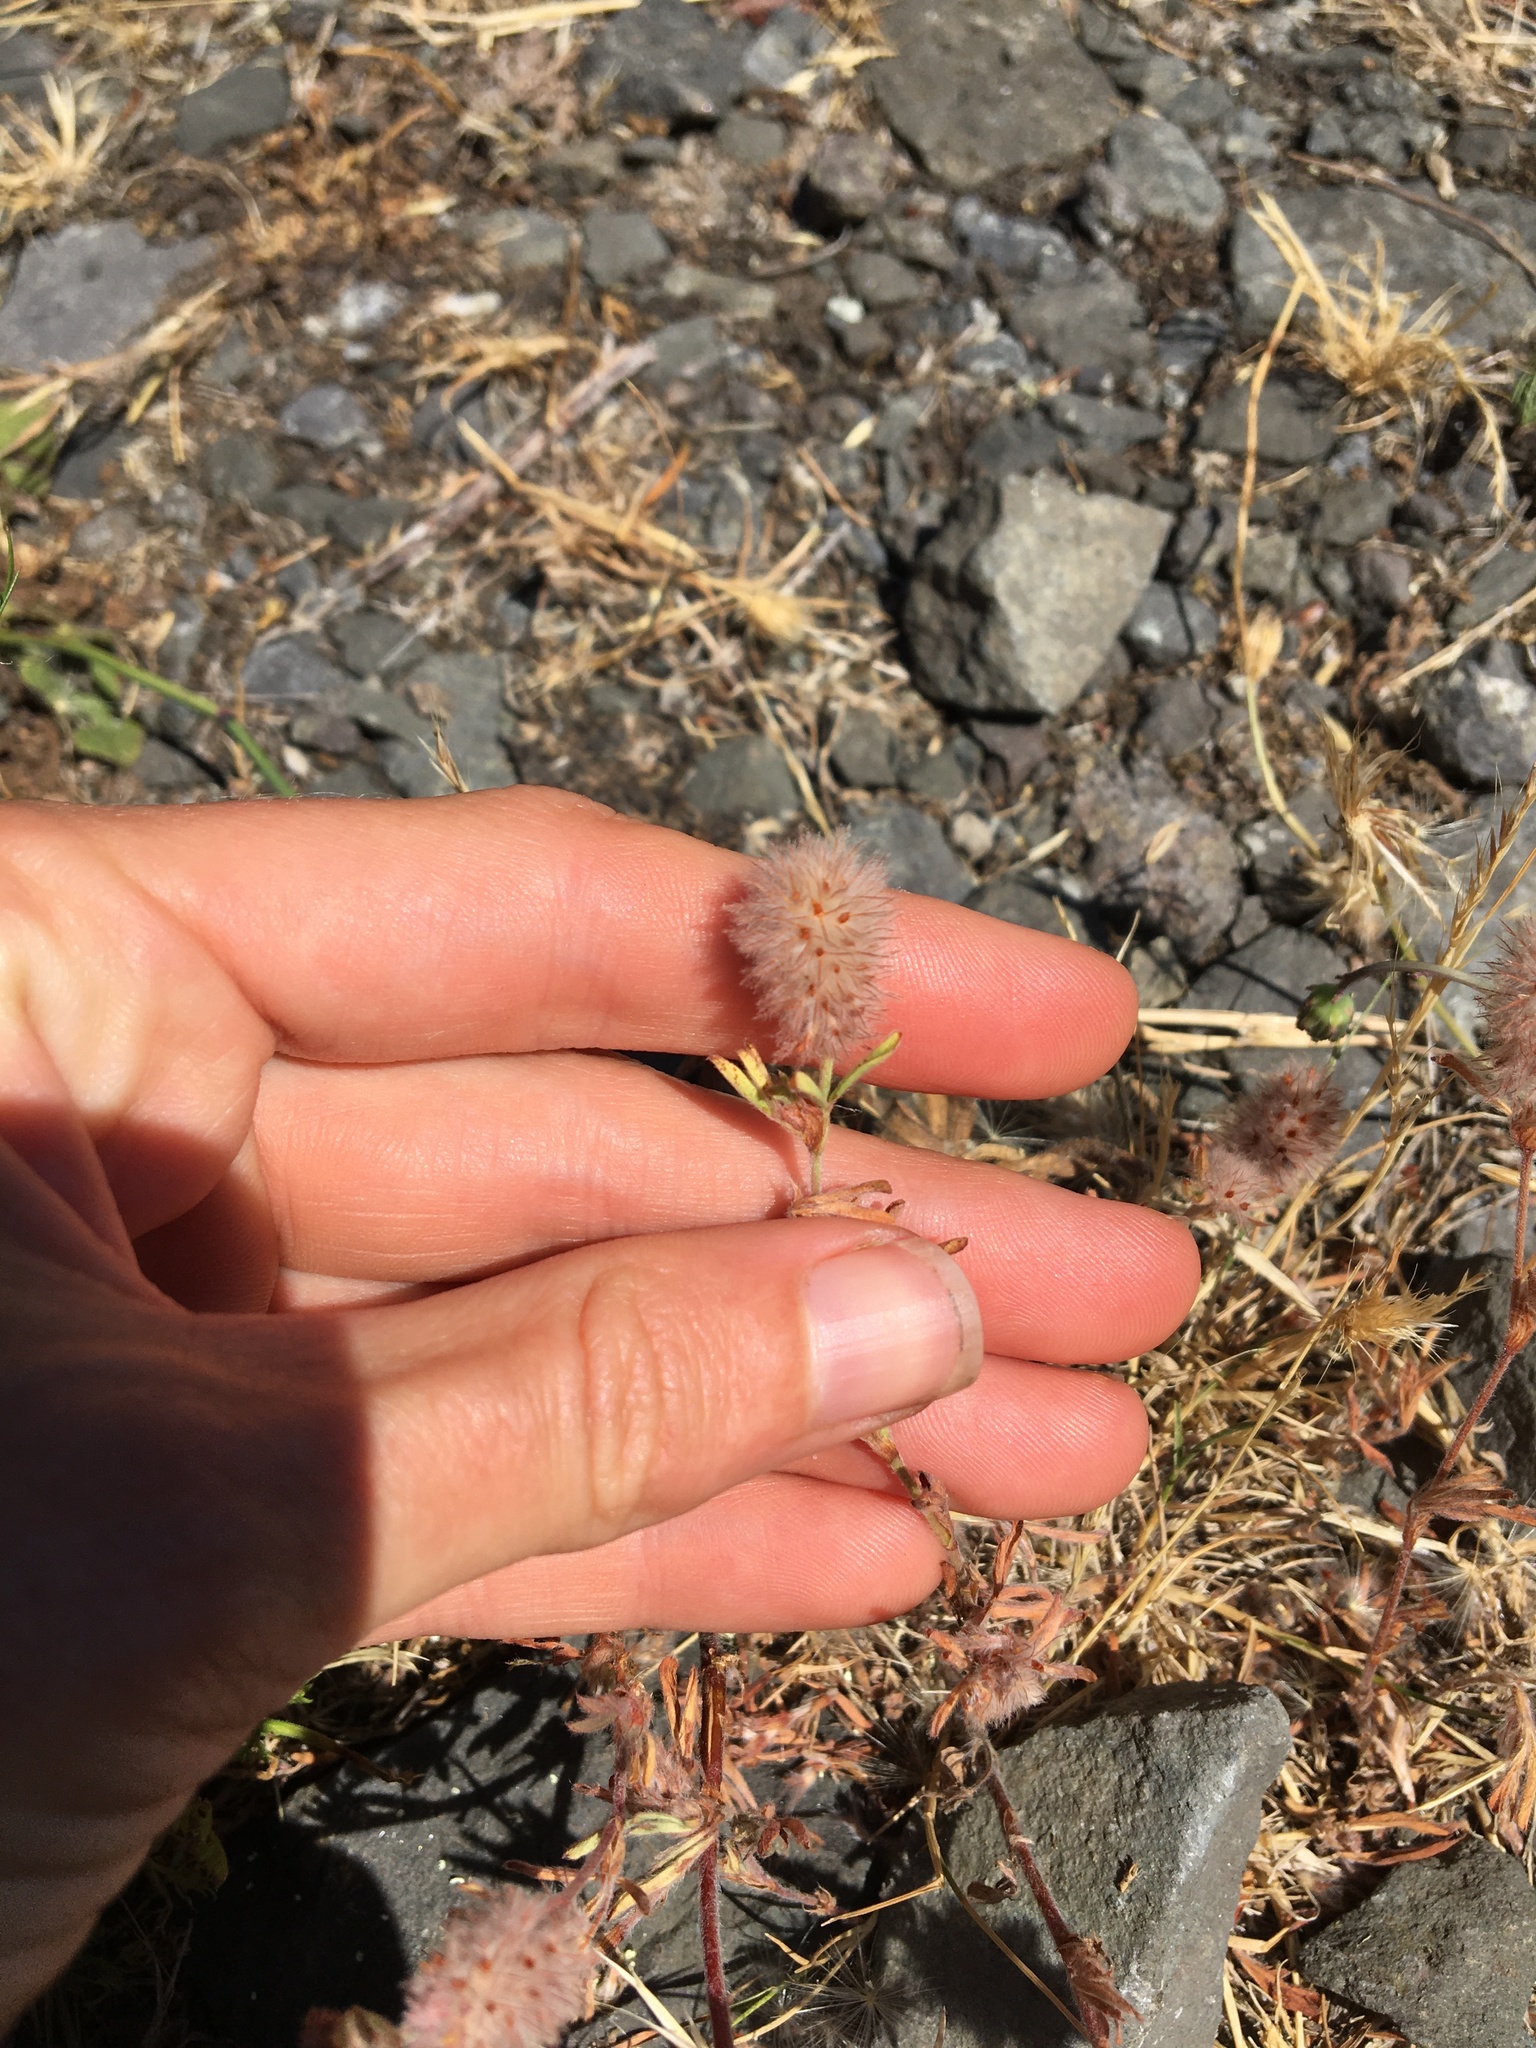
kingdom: Plantae
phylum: Tracheophyta
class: Magnoliopsida
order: Fabales
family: Fabaceae
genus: Trifolium
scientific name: Trifolium arvense
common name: Hare's-foot clover
